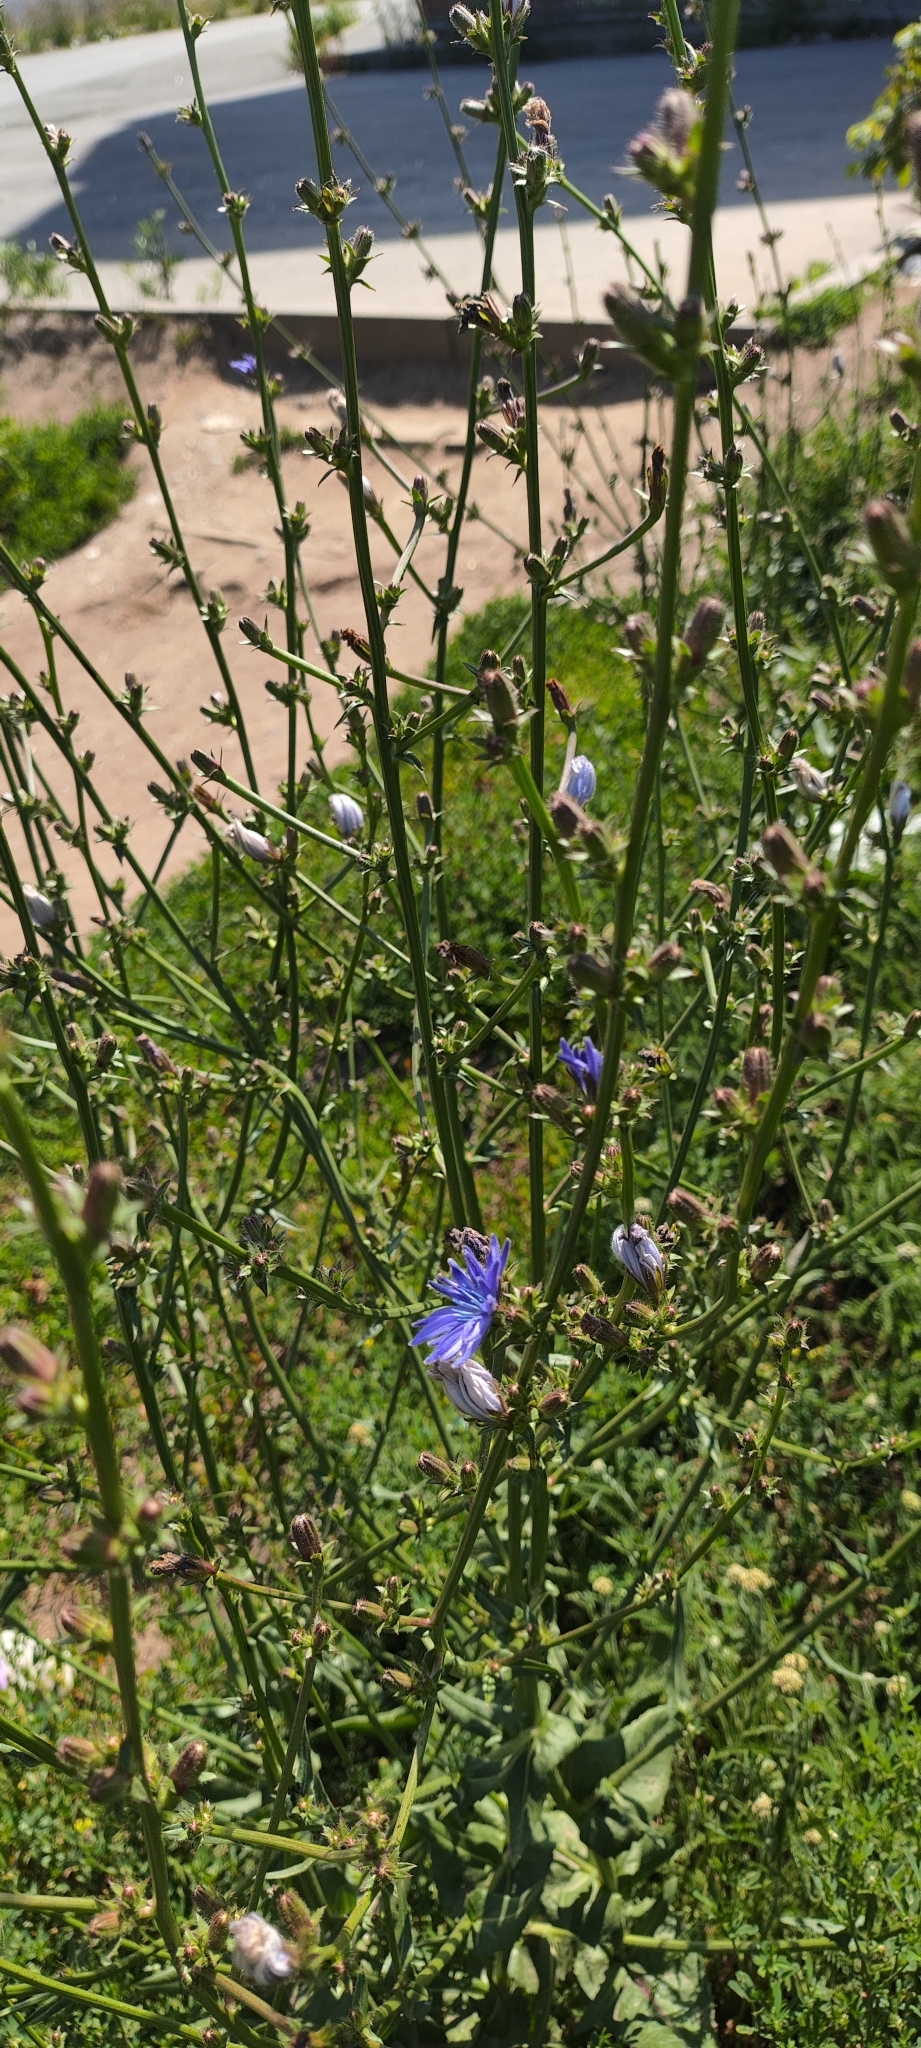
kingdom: Plantae
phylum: Tracheophyta
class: Magnoliopsida
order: Asterales
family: Asteraceae
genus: Cichorium
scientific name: Cichorium intybus
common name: Chicory
